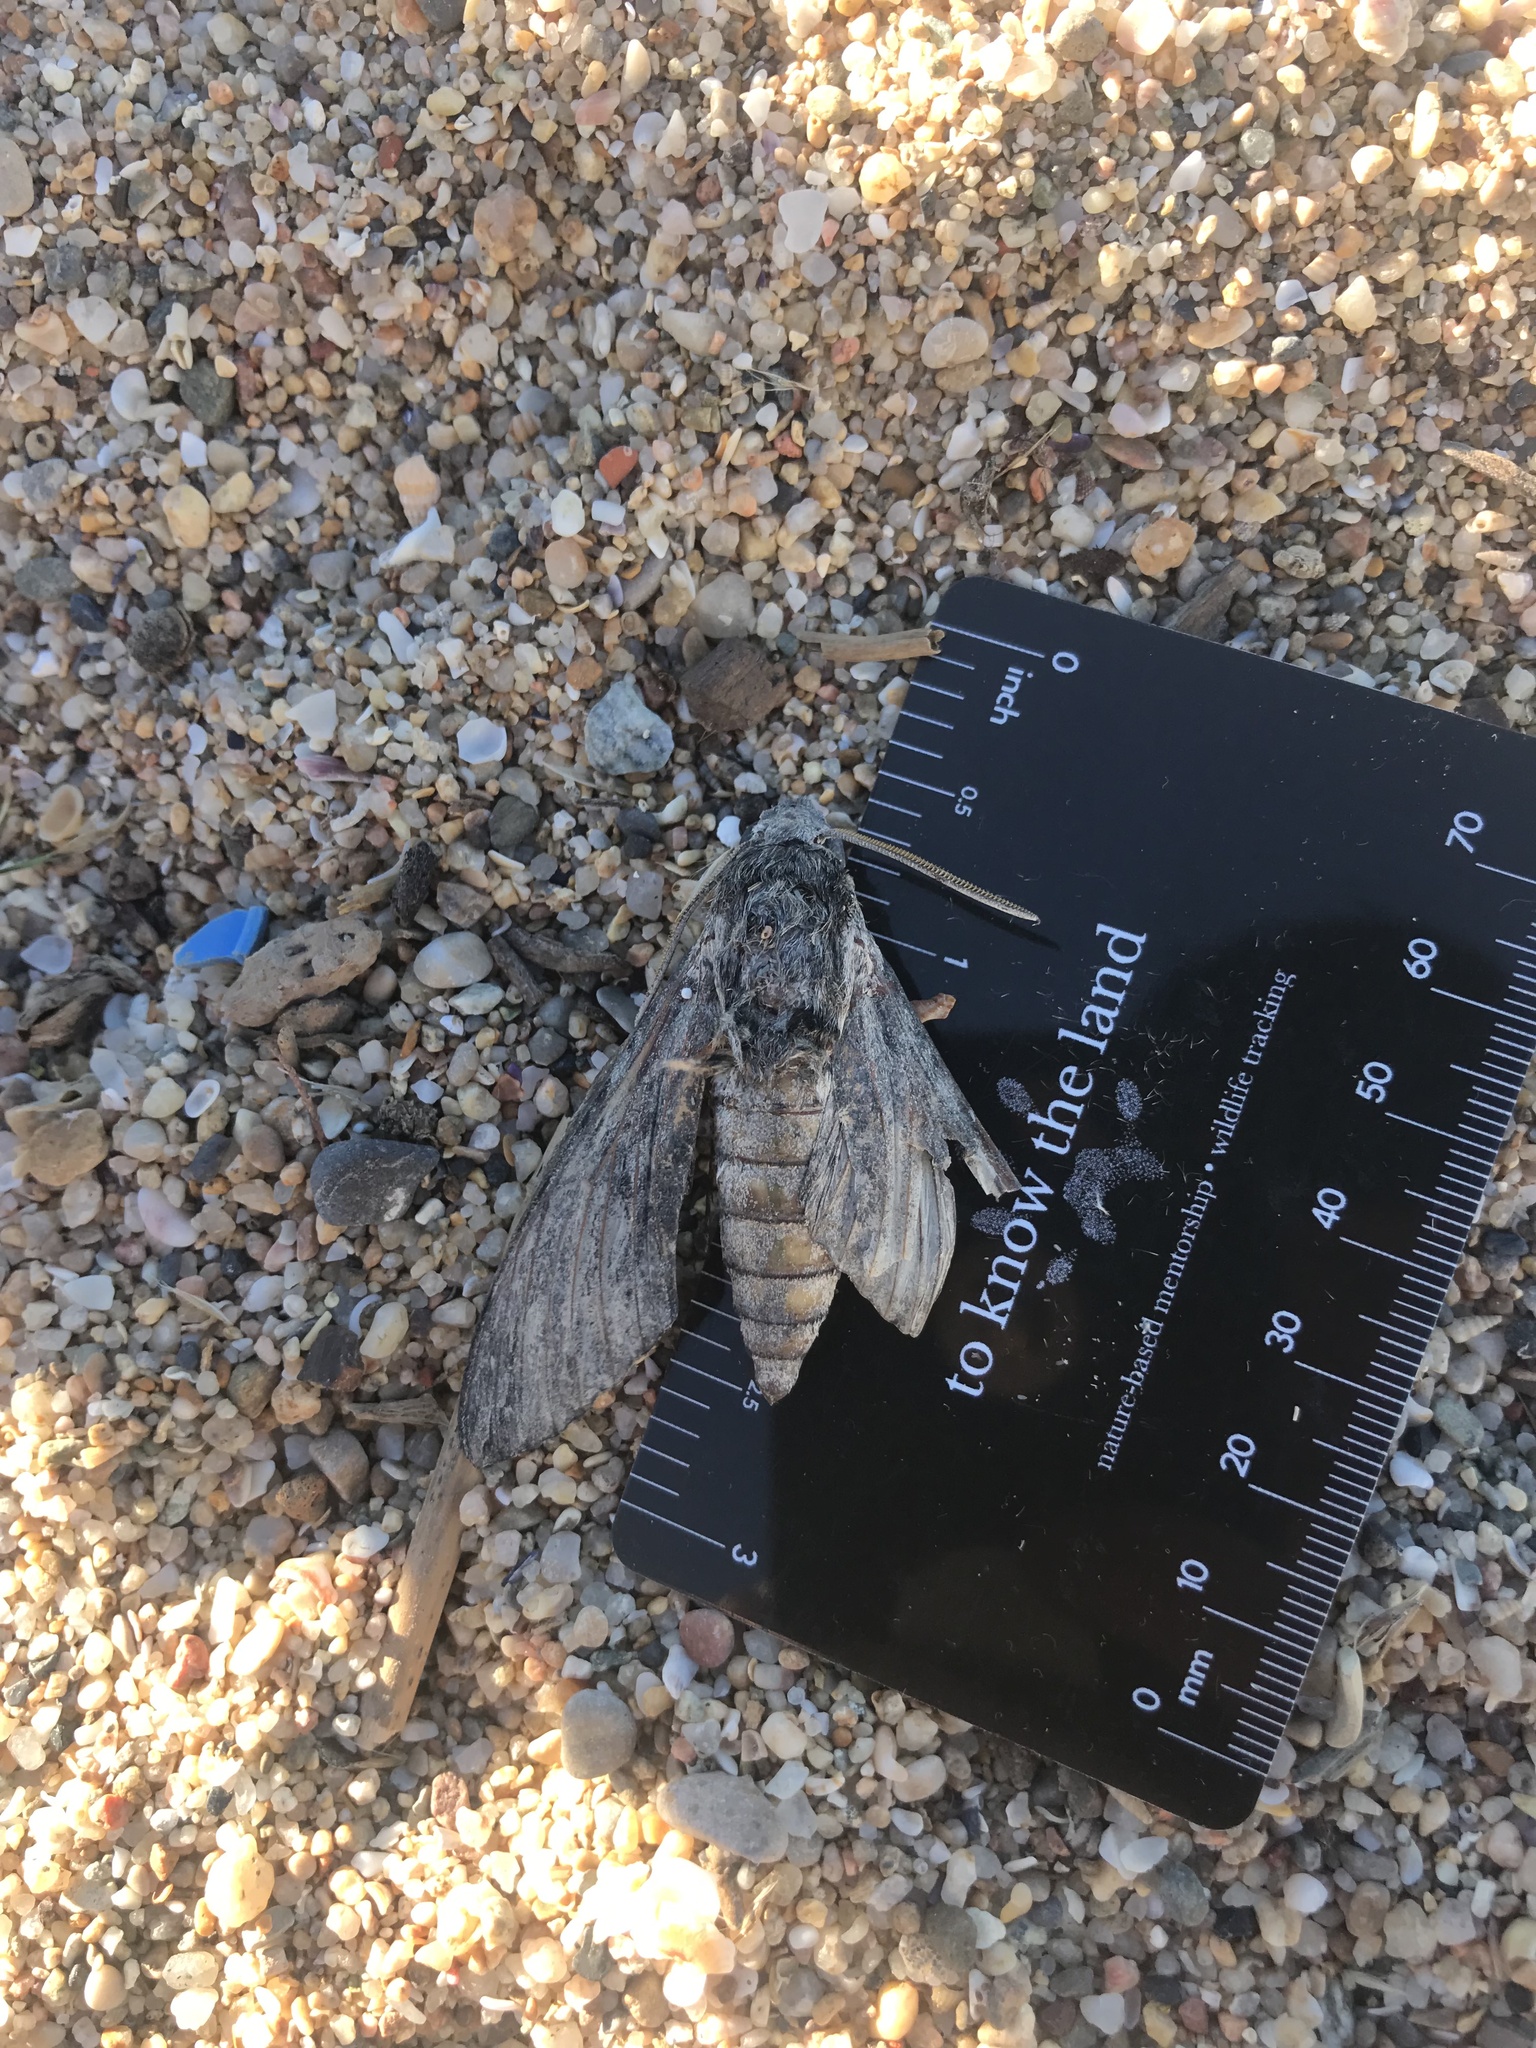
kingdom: Animalia
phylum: Arthropoda
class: Insecta
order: Lepidoptera
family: Sphingidae
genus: Agrius
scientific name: Agrius convolvuli
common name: Convolvulus hawkmoth
